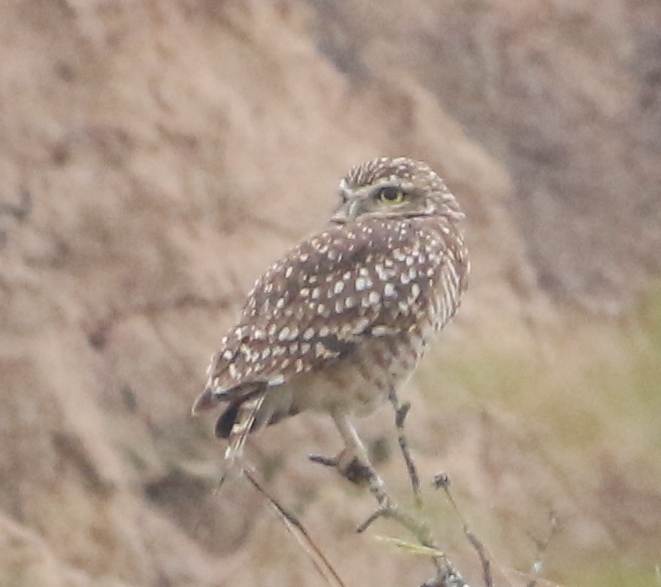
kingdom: Animalia
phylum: Chordata
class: Aves
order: Strigiformes
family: Strigidae
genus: Athene
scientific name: Athene cunicularia
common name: Burrowing owl
